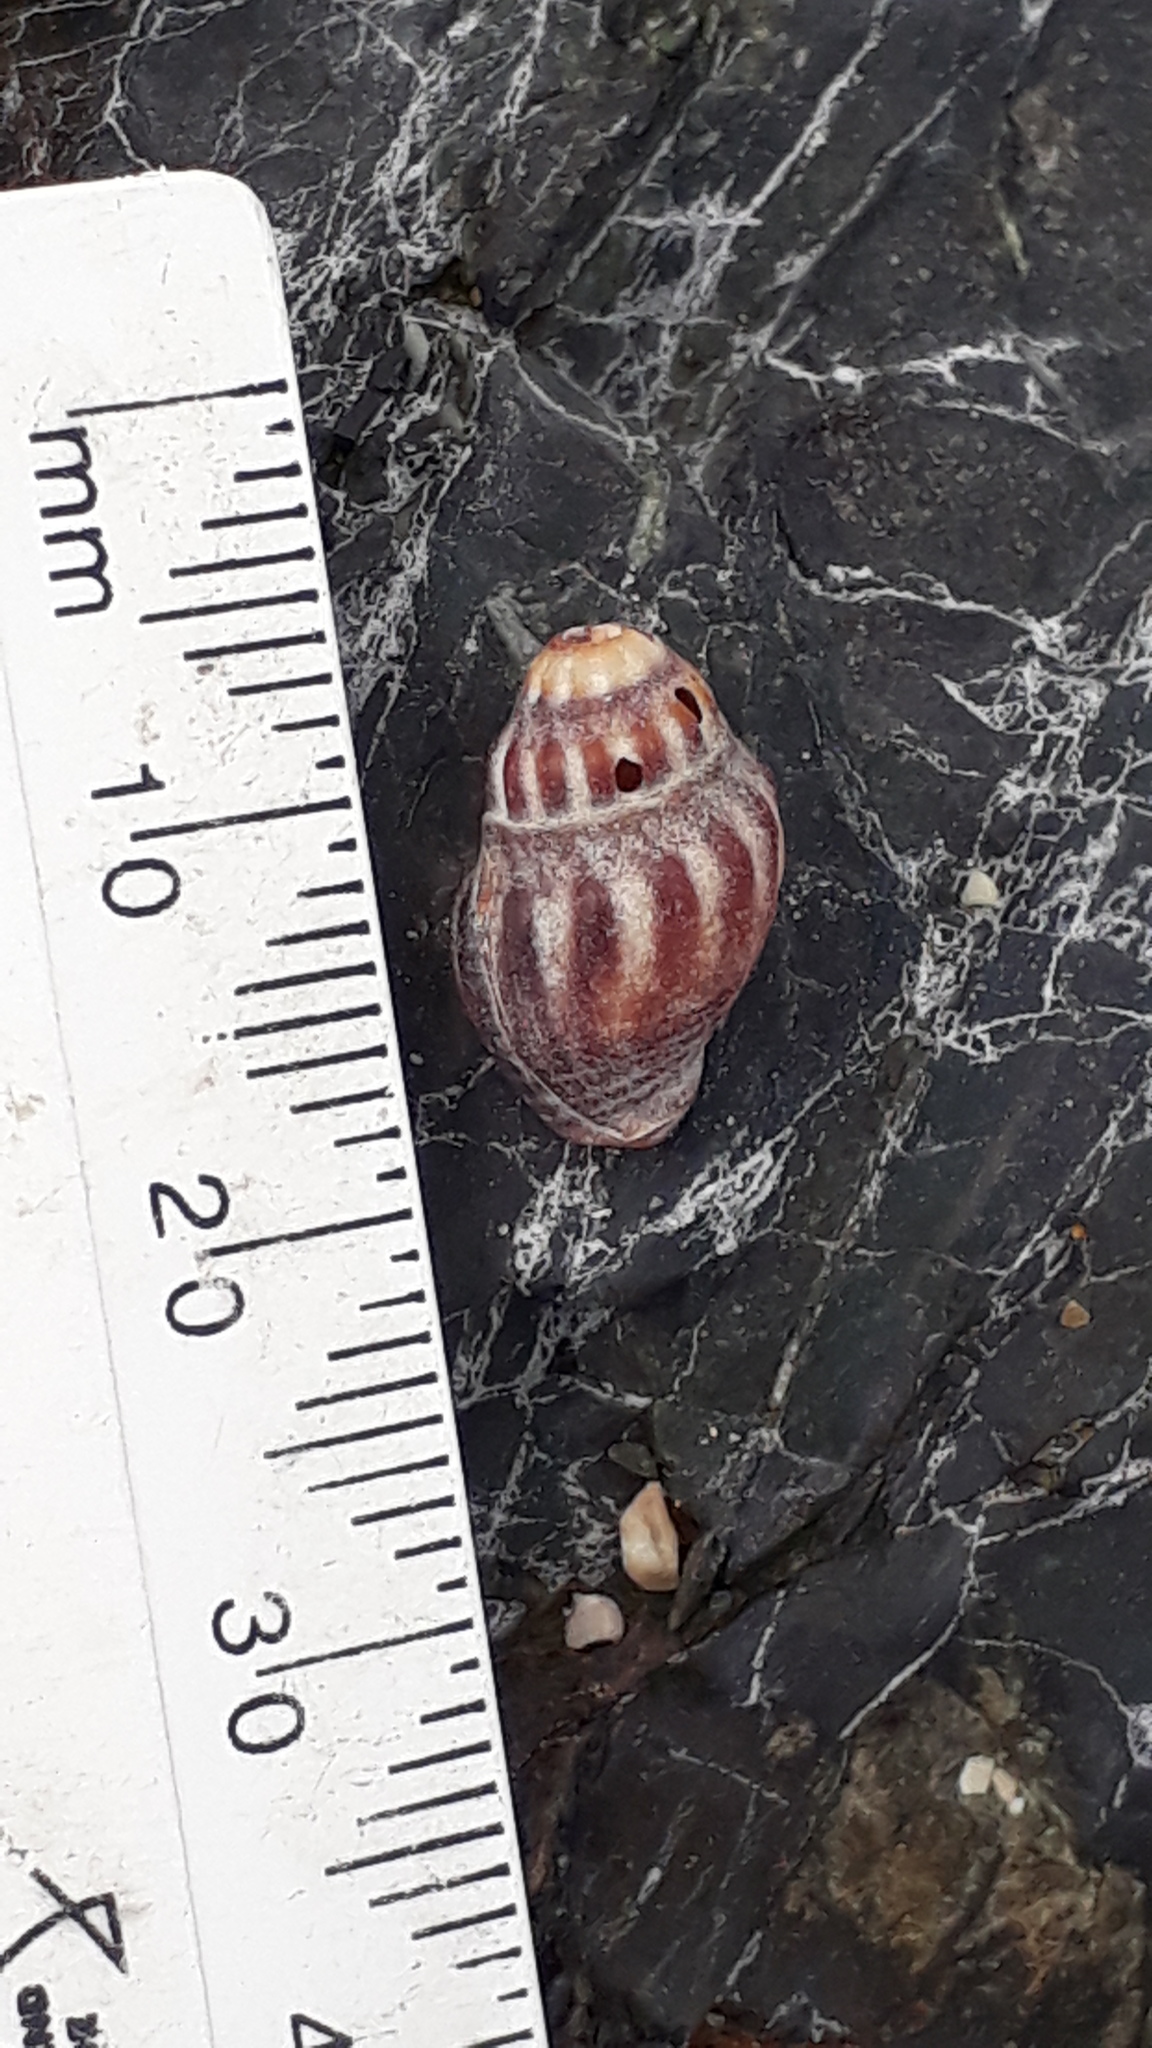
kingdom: Animalia
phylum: Mollusca
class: Gastropoda
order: Neogastropoda
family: Cominellidae
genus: Cominella
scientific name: Cominella glandiformis
